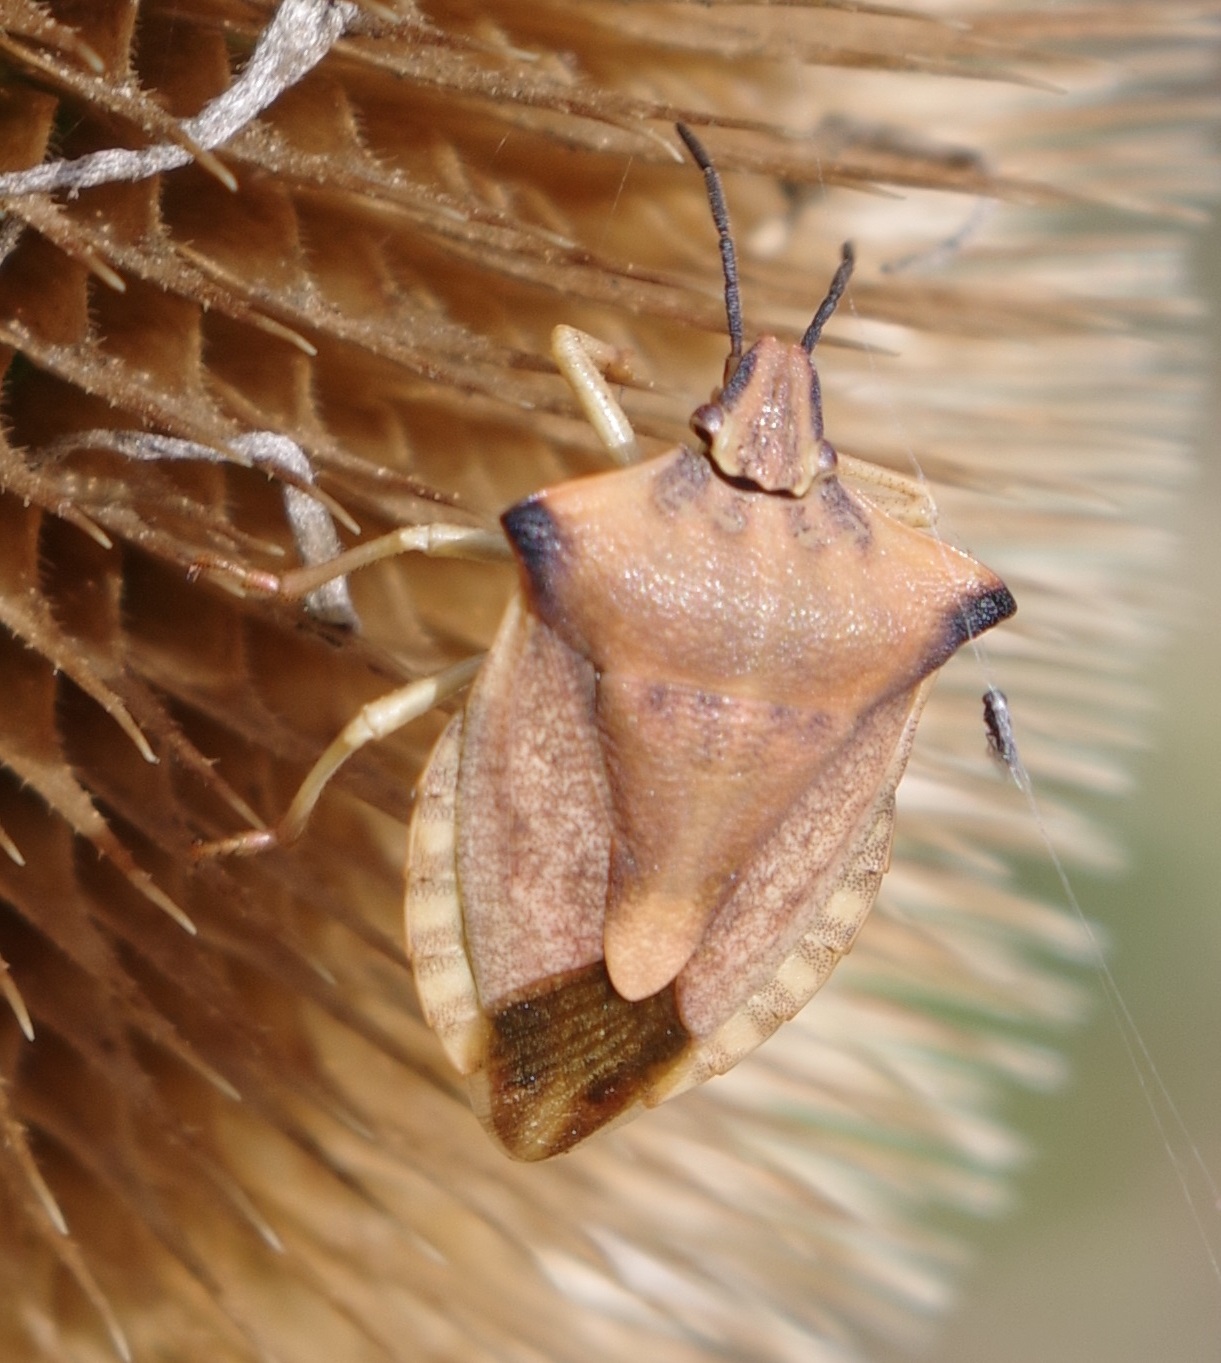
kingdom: Animalia
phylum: Arthropoda
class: Insecta
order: Hemiptera
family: Pentatomidae
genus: Carpocoris
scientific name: Carpocoris fuscispinus
